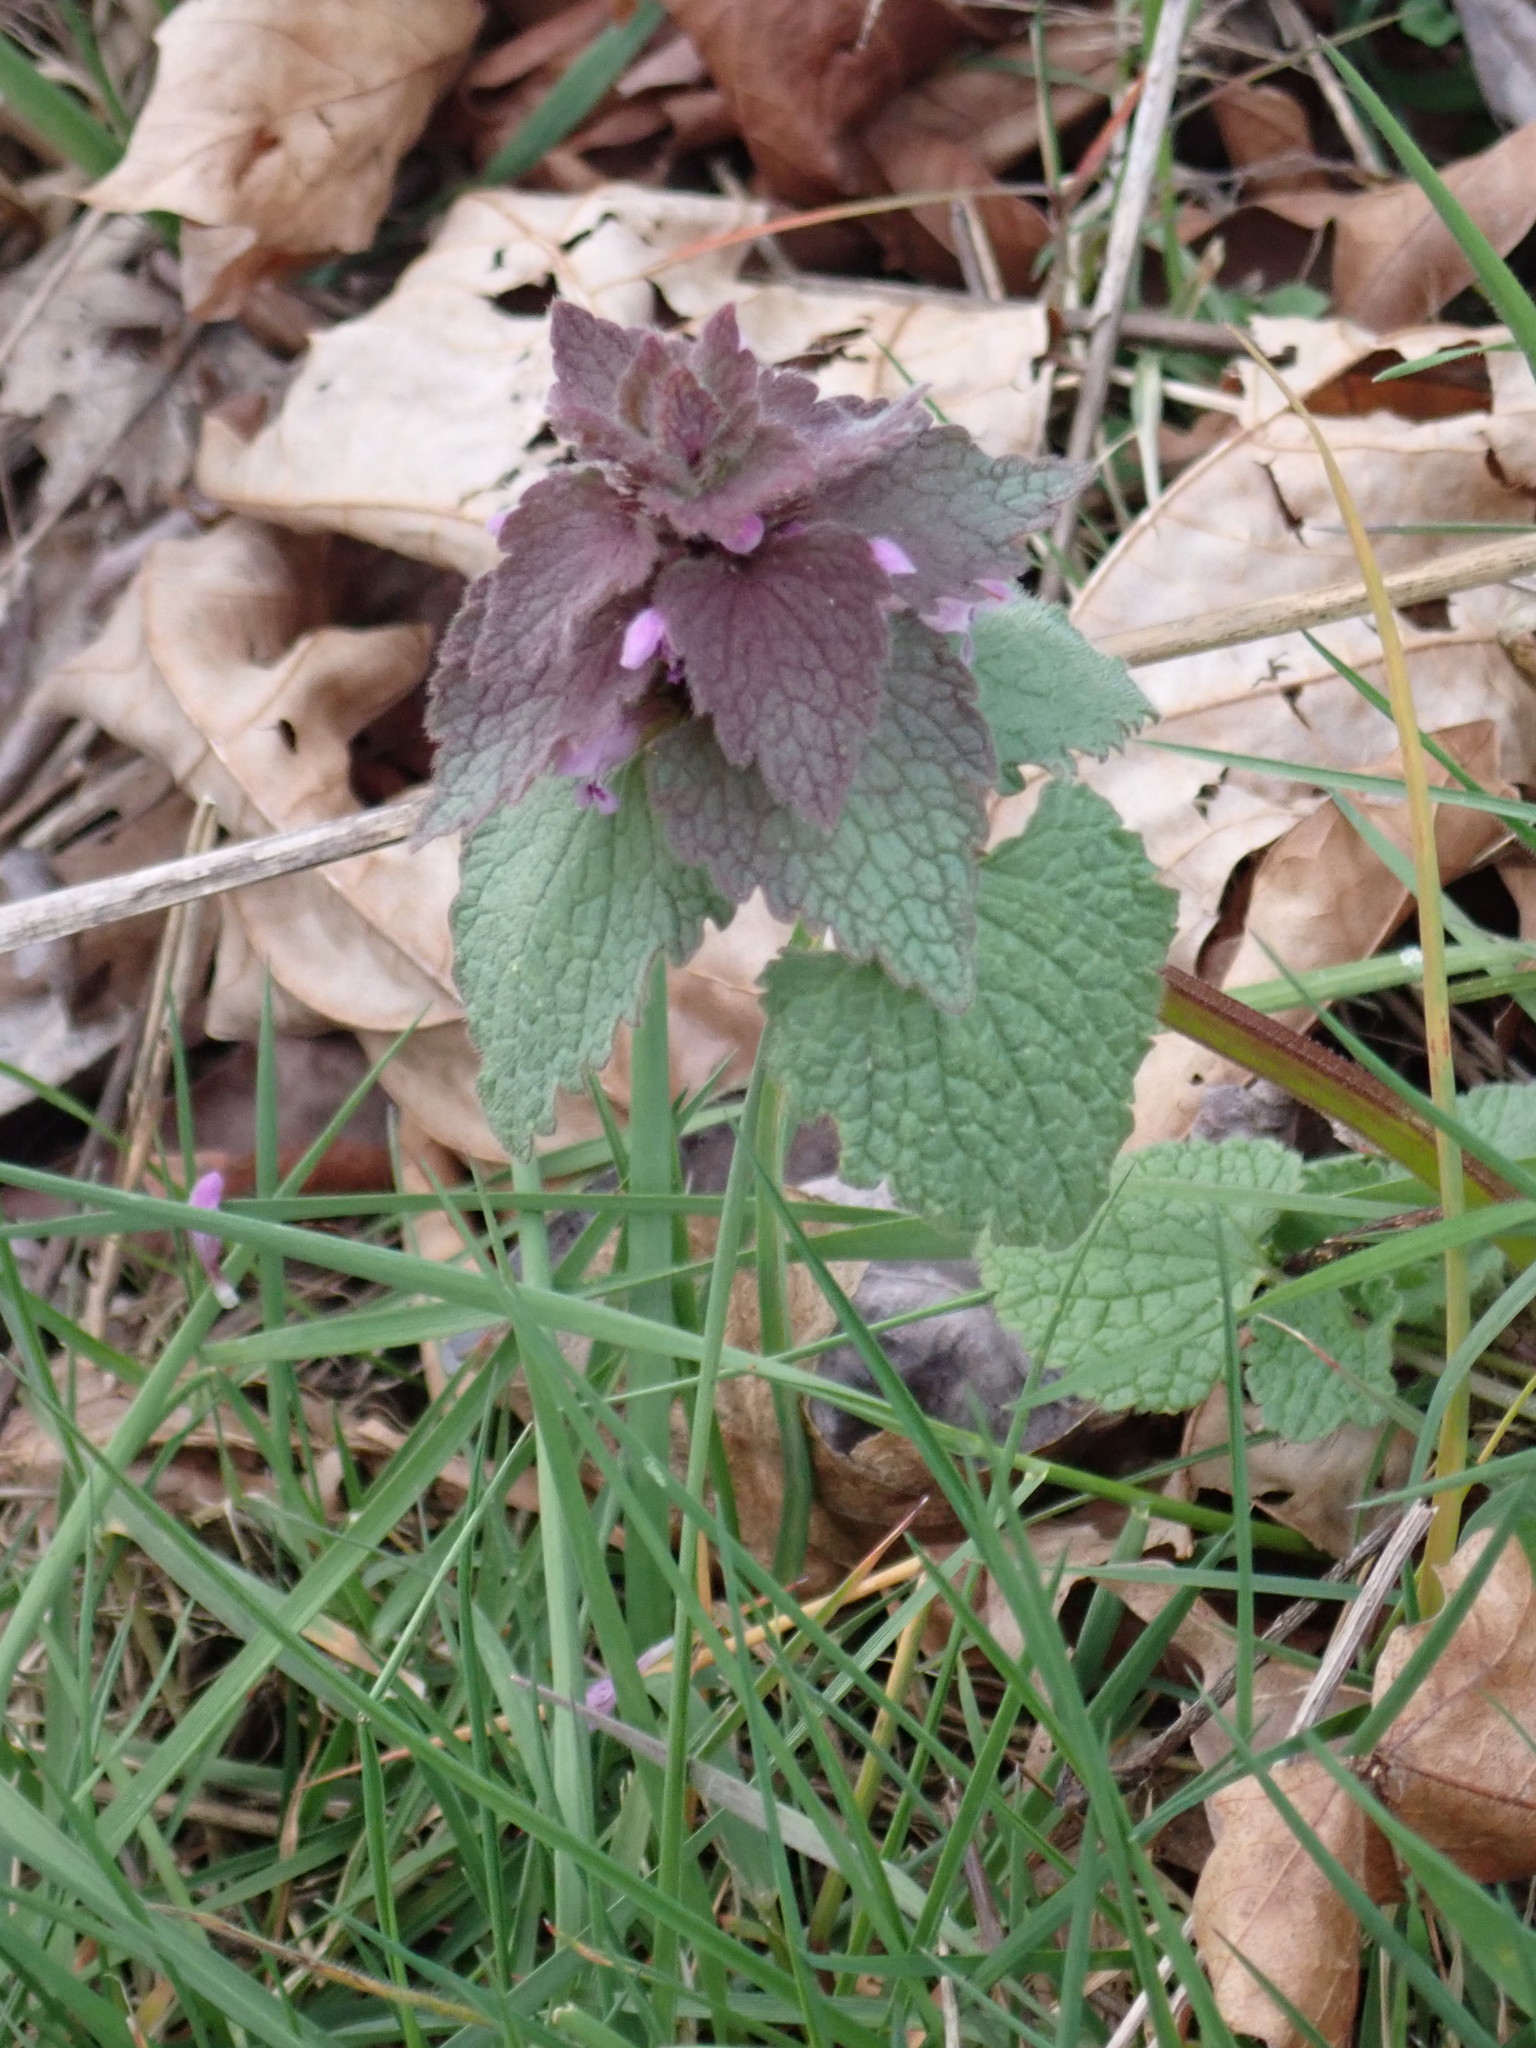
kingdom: Plantae
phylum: Tracheophyta
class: Magnoliopsida
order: Lamiales
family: Lamiaceae
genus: Lamium
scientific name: Lamium purpureum
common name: Red dead-nettle
